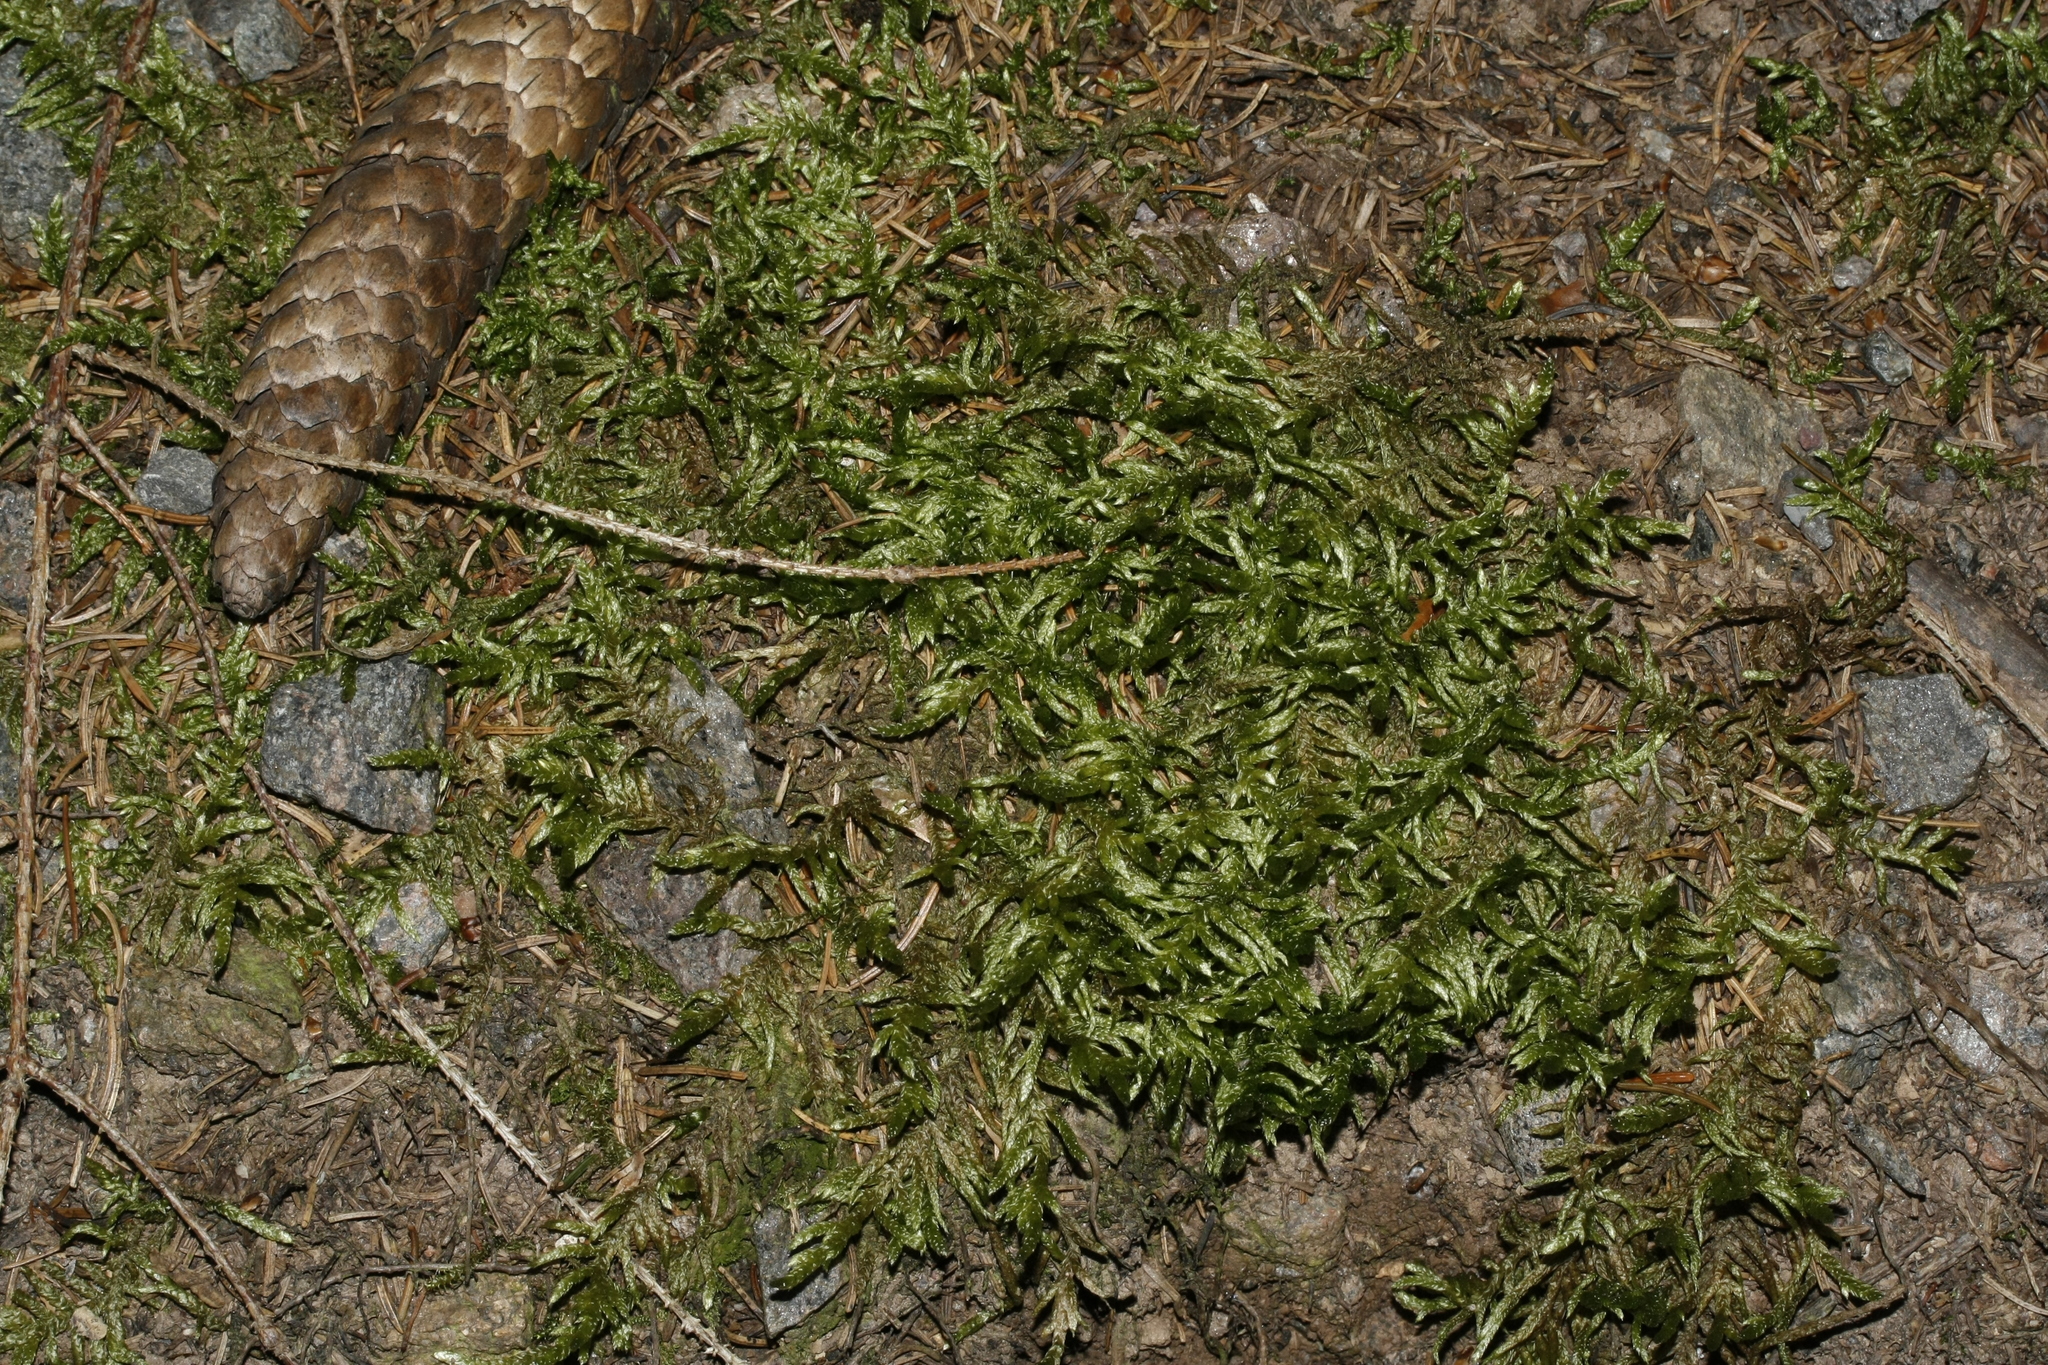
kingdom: Plantae
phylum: Bryophyta
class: Bryopsida
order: Hypnales
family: Hylocomiaceae
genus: Pleurozium
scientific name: Pleurozium schreberi
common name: Red-stemmed feather moss
